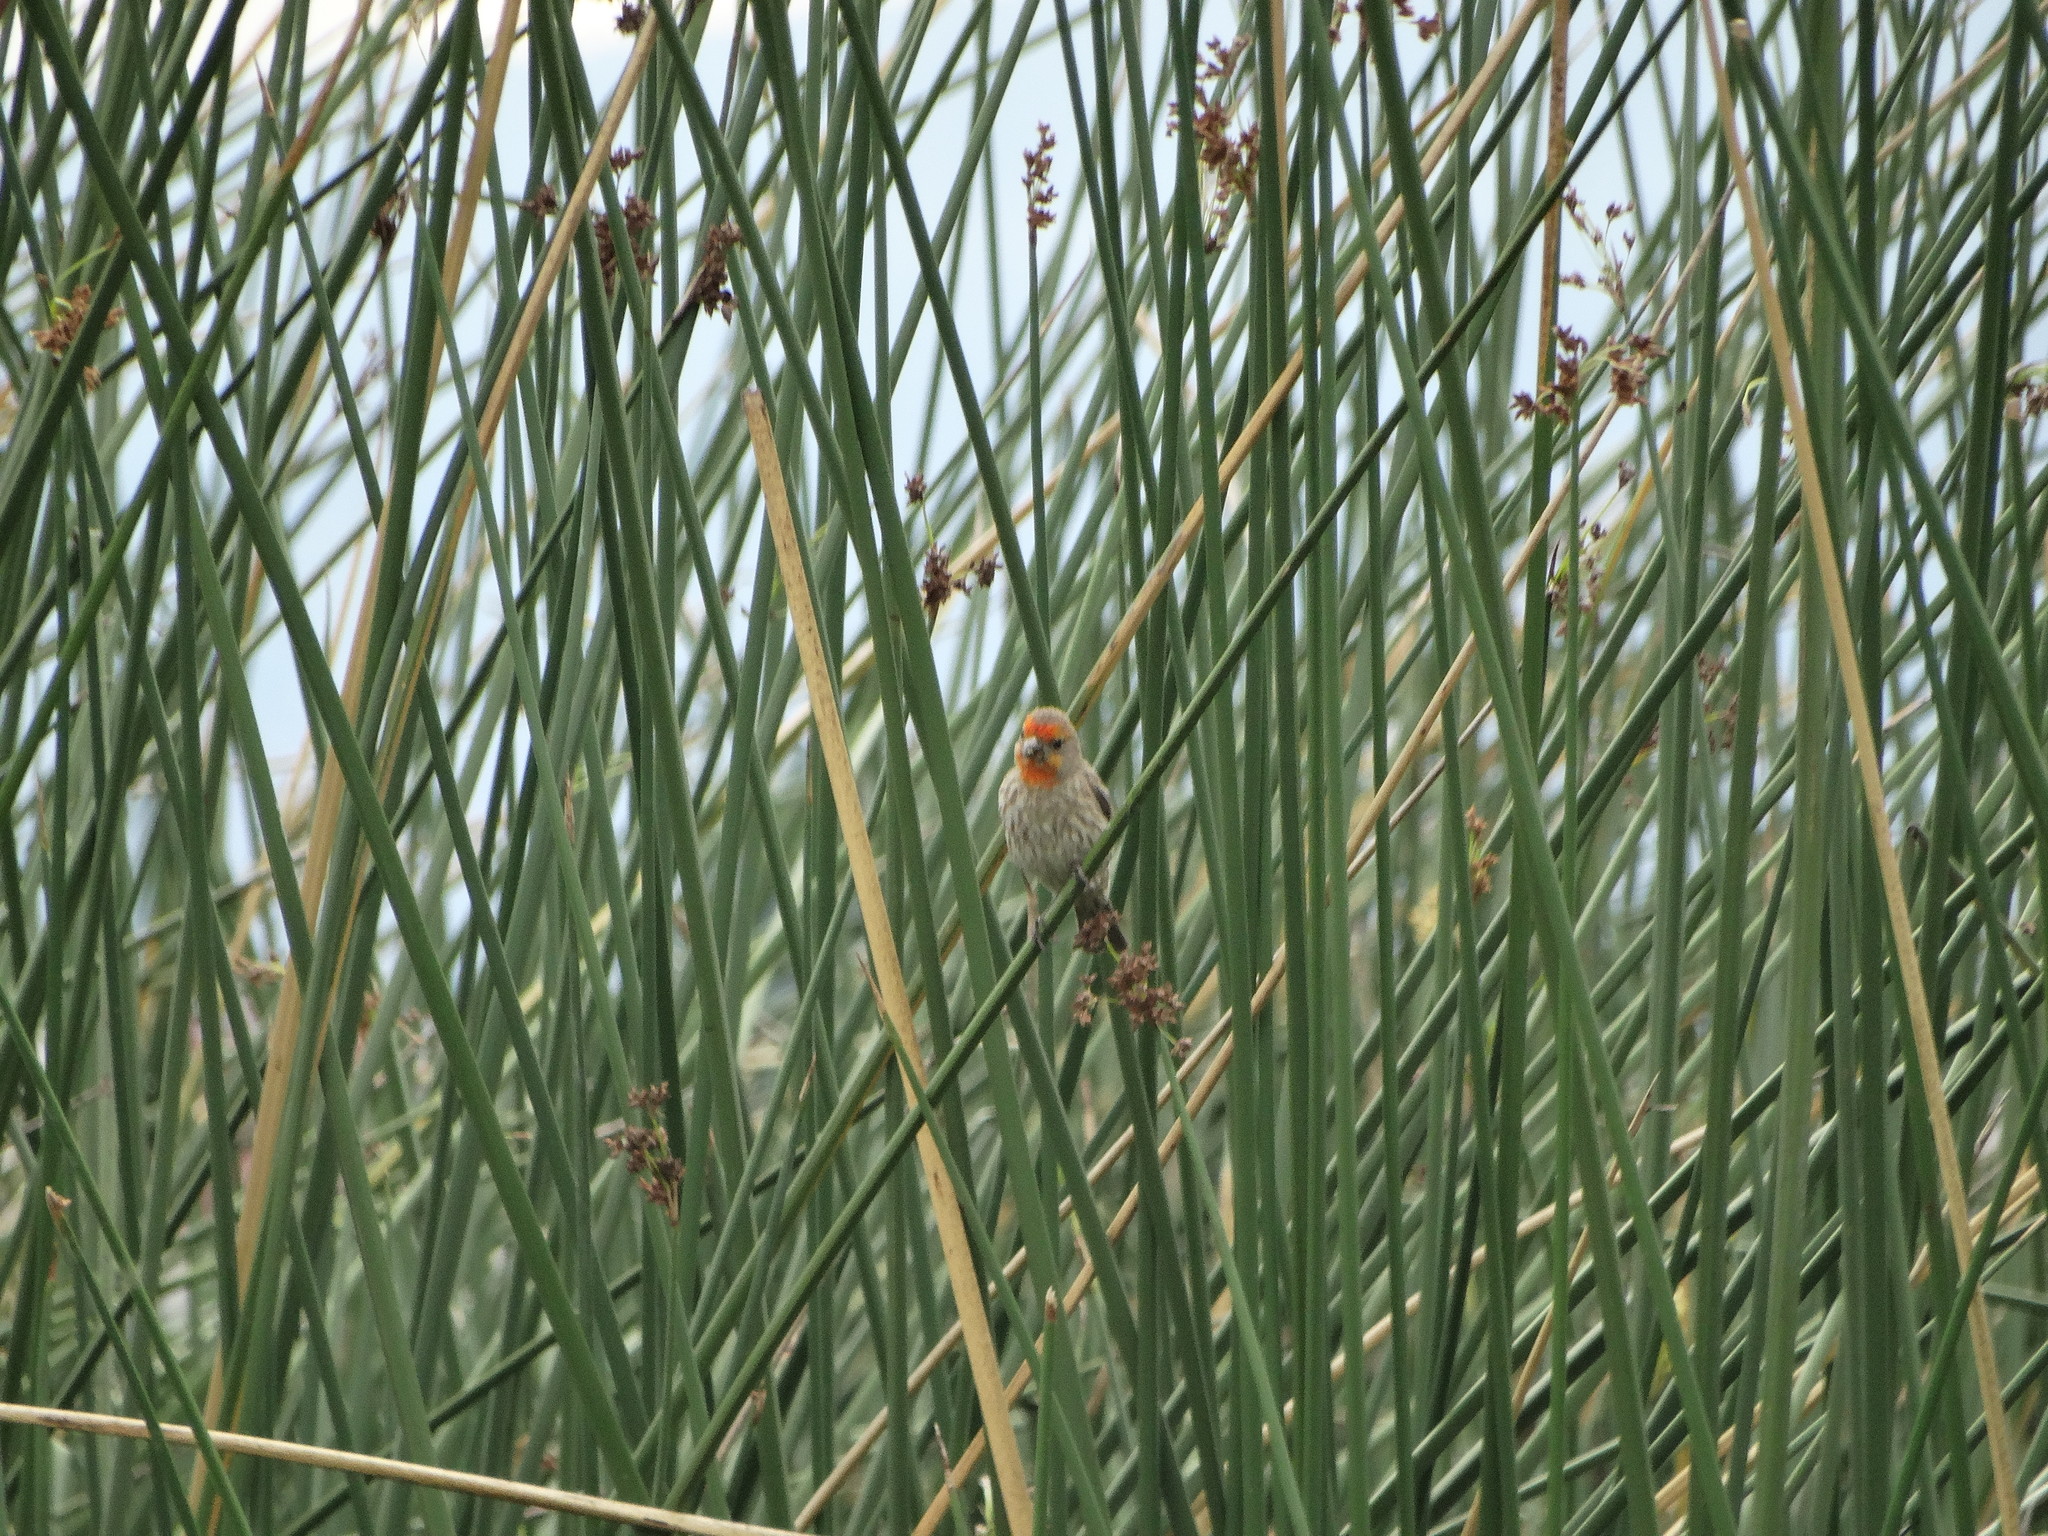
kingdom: Animalia
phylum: Chordata
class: Aves
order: Passeriformes
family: Fringillidae
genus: Haemorhous
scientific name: Haemorhous mexicanus
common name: House finch
